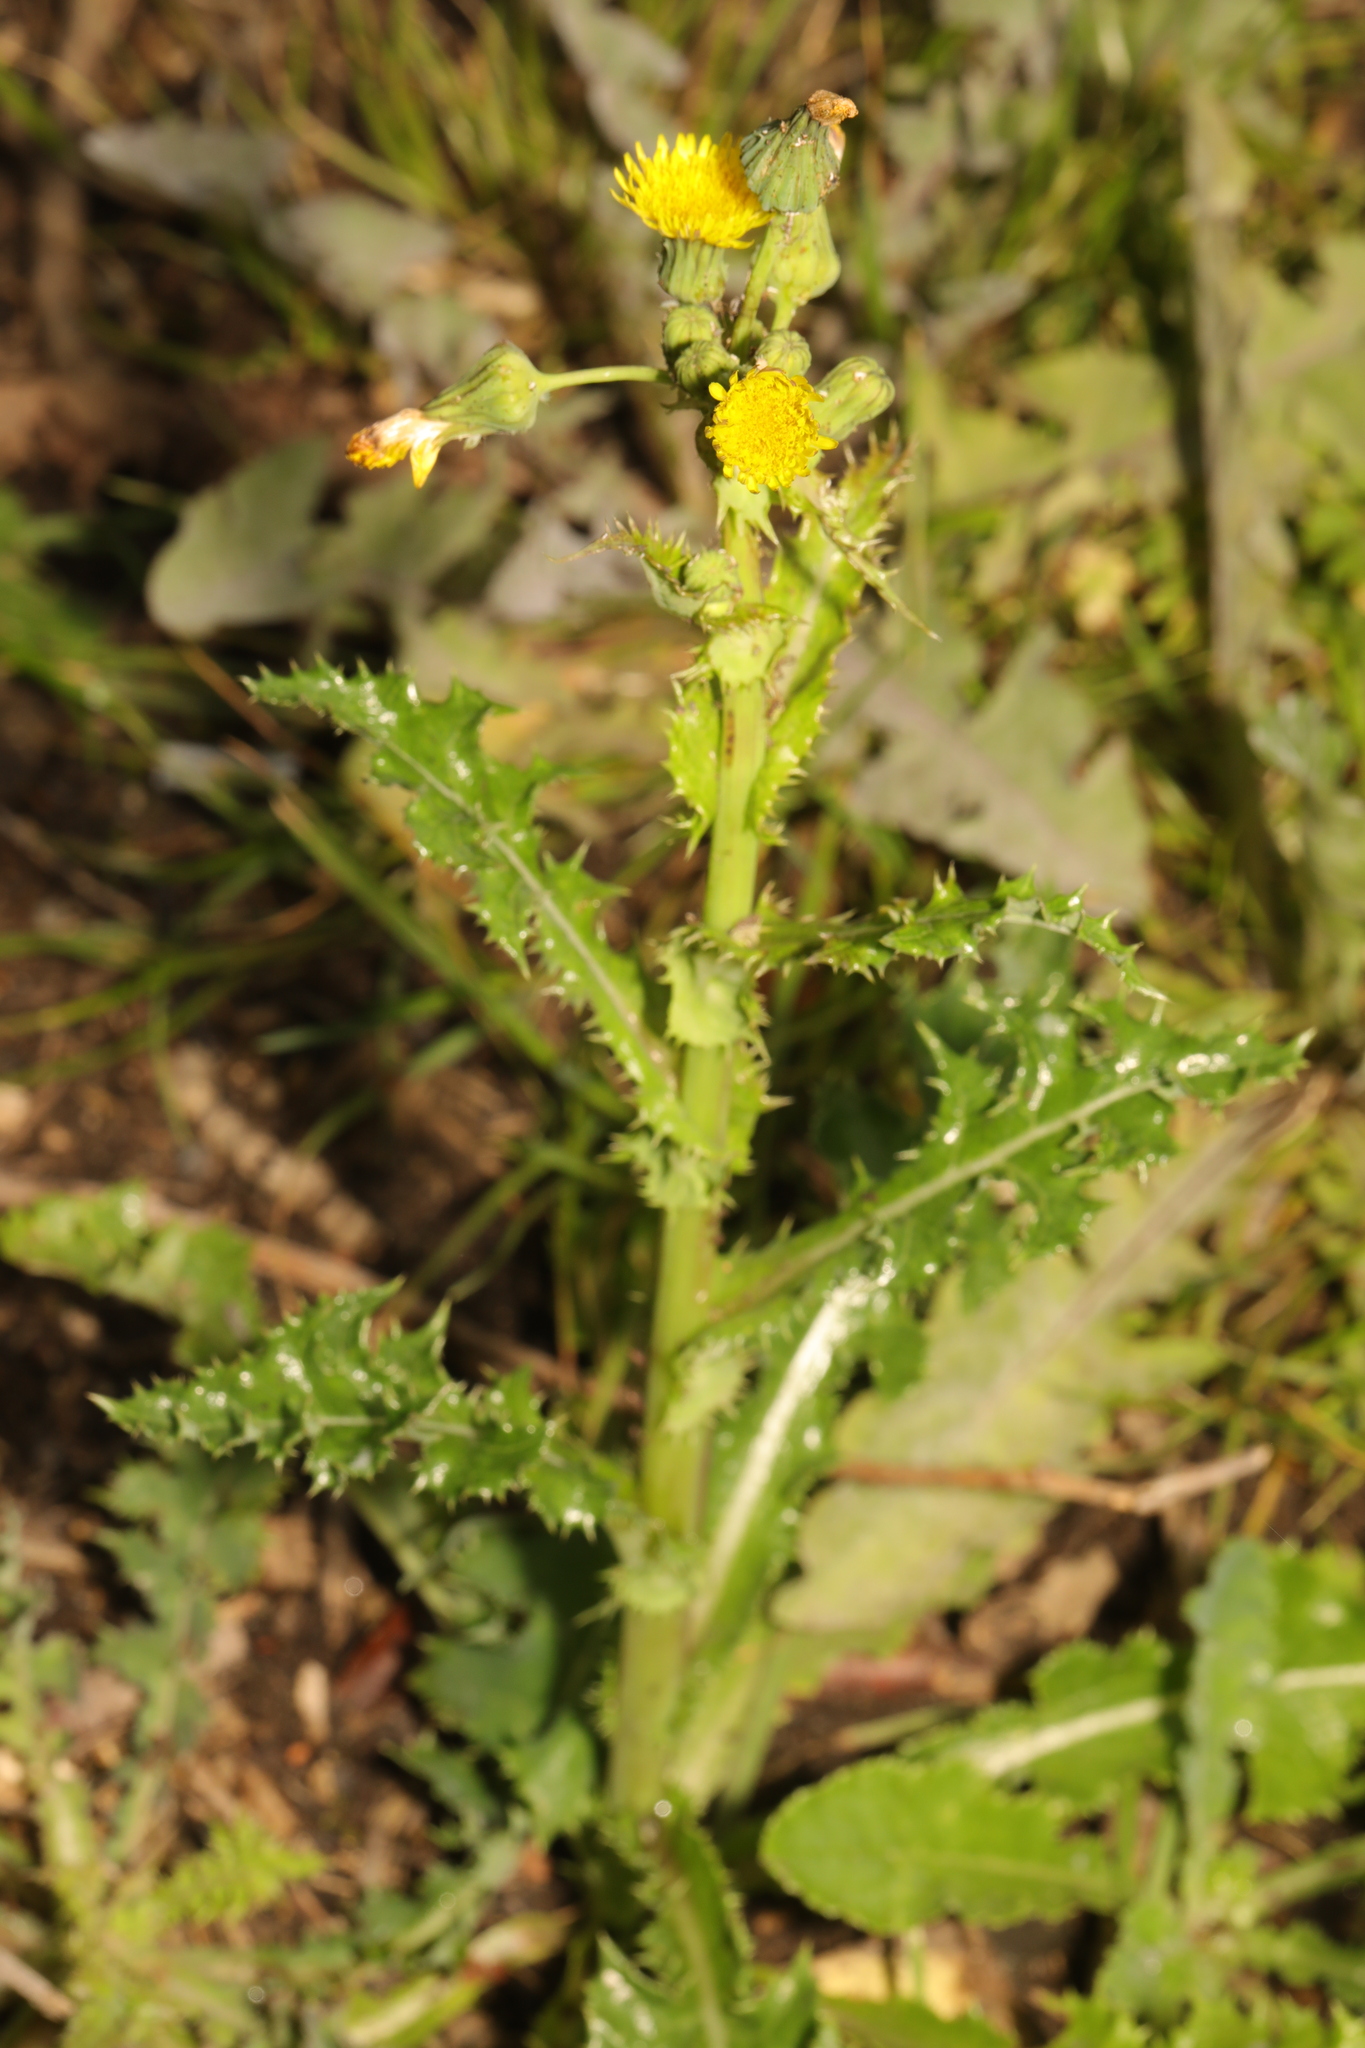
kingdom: Plantae
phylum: Tracheophyta
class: Magnoliopsida
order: Asterales
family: Asteraceae
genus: Sonchus
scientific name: Sonchus asper
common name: Prickly sow-thistle
